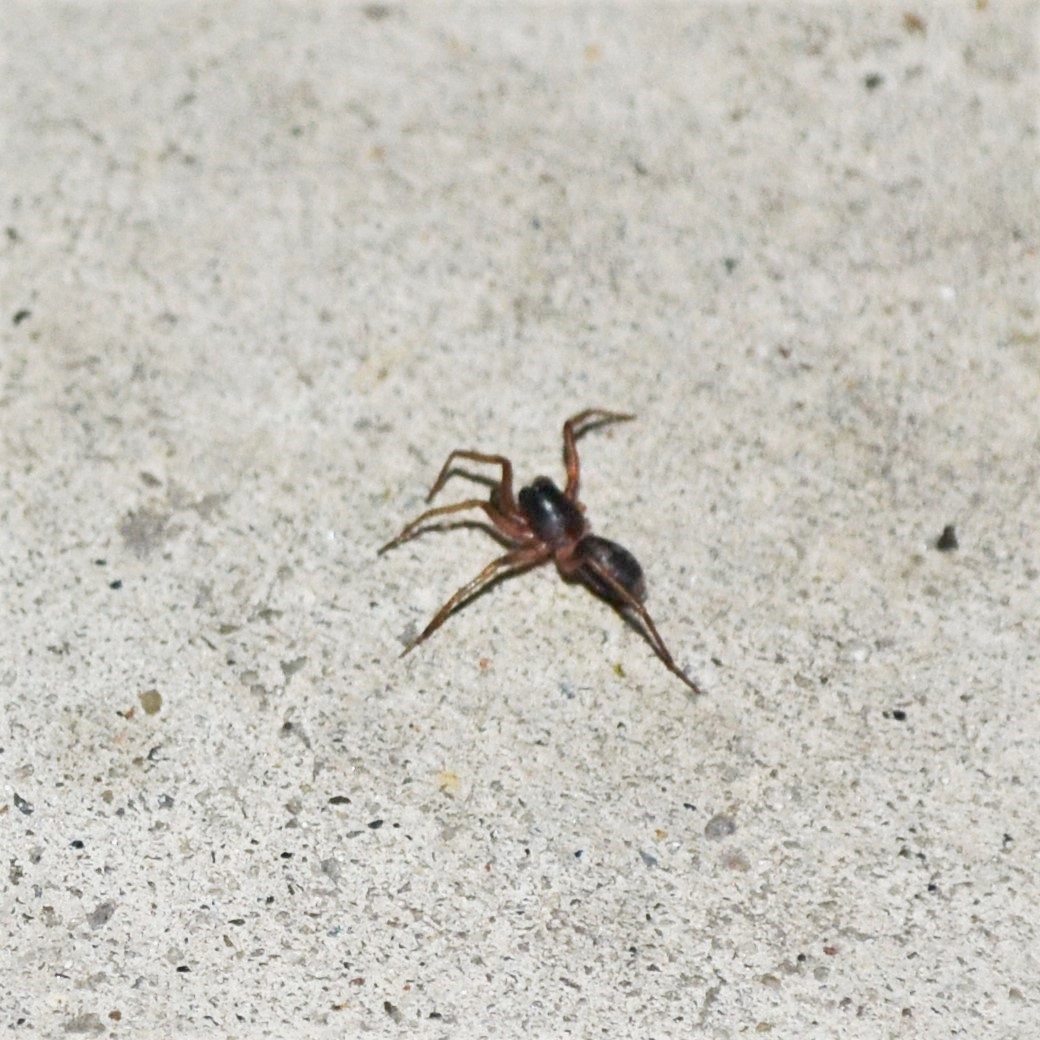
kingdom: Animalia
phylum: Arthropoda
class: Arachnida
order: Araneae
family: Corinnidae
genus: Falconina
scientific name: Falconina gracilis
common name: Antmimic spider
